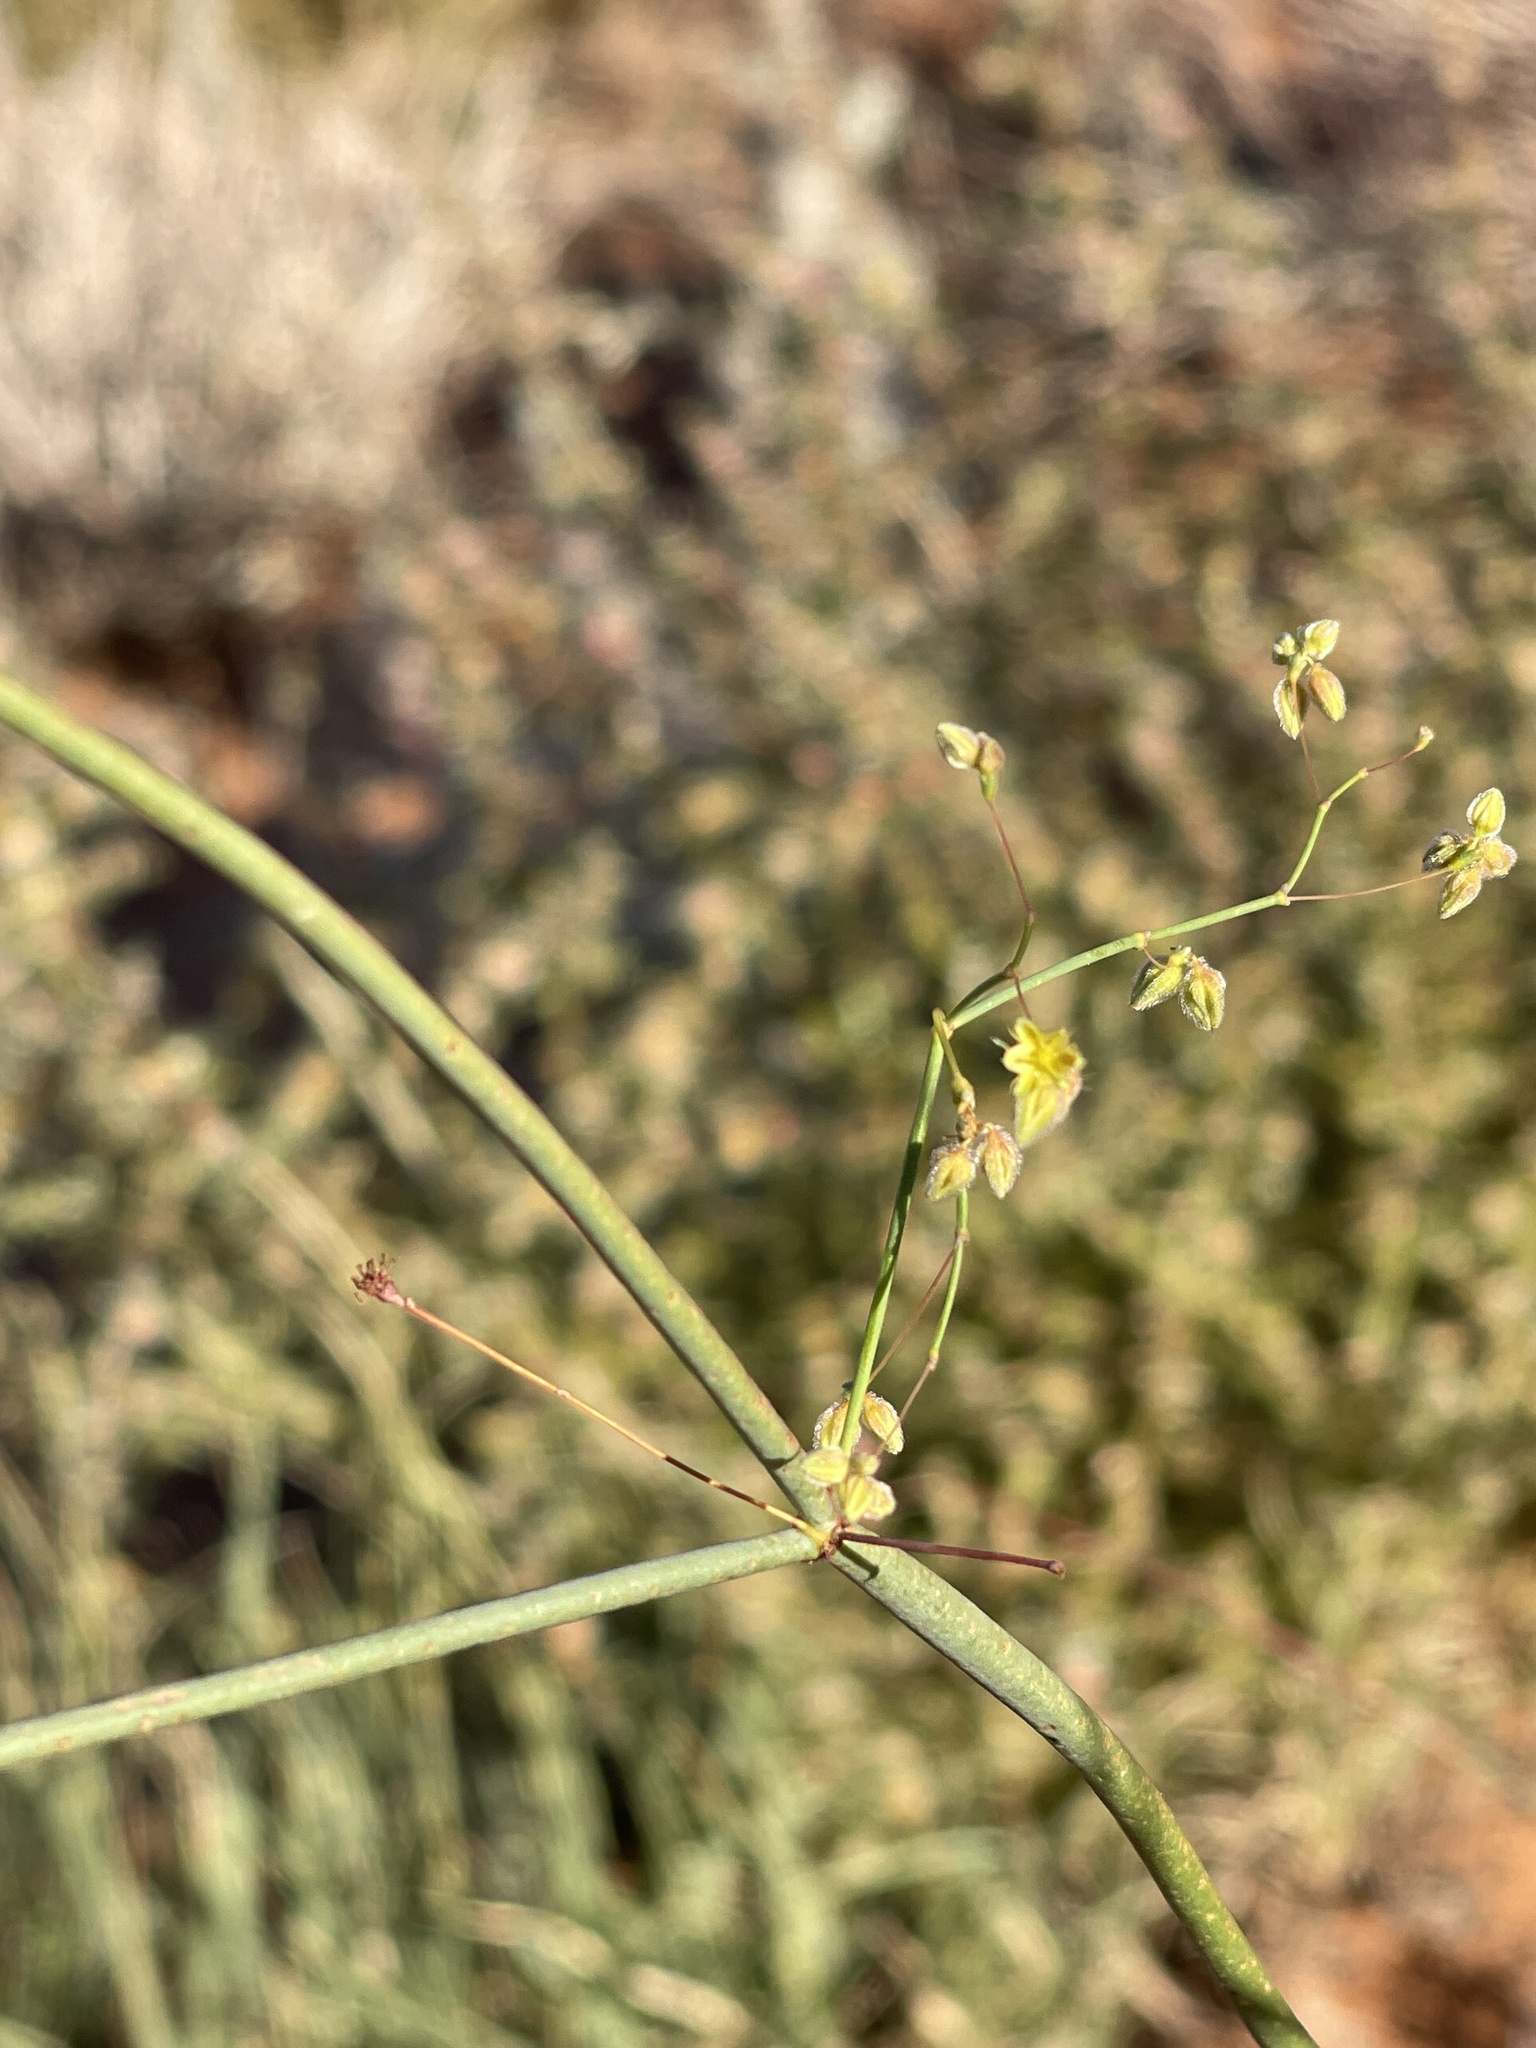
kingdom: Plantae
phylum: Tracheophyta
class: Magnoliopsida
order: Caryophyllales
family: Polygonaceae
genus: Eriogonum
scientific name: Eriogonum inflatum
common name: Desert trumpet
